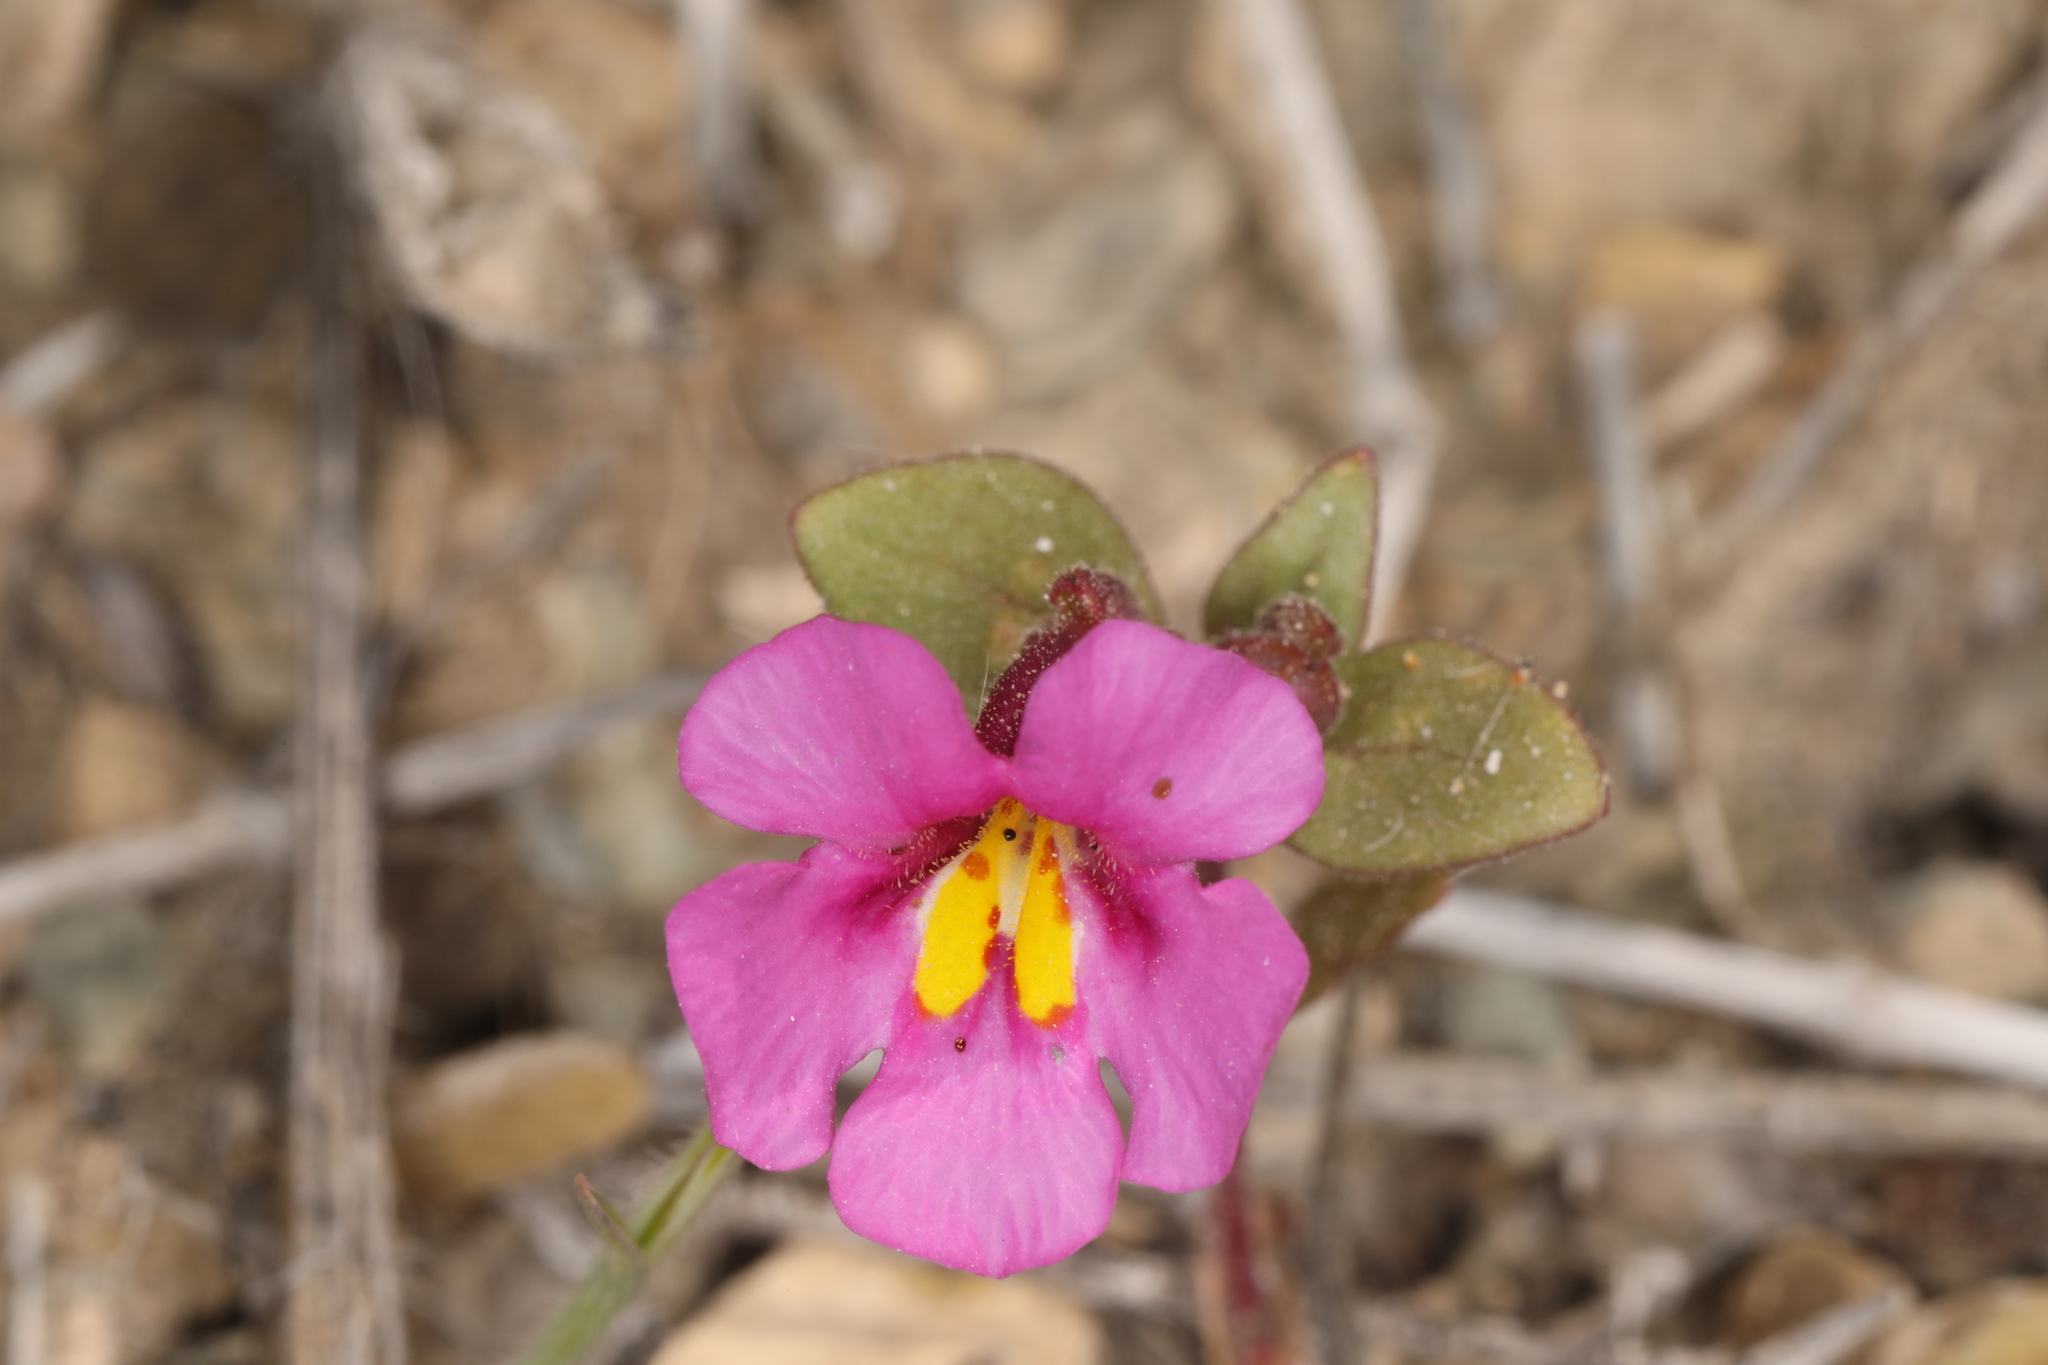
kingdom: Plantae
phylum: Tracheophyta
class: Magnoliopsida
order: Lamiales
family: Phrymaceae
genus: Diplacus
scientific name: Diplacus parryi
